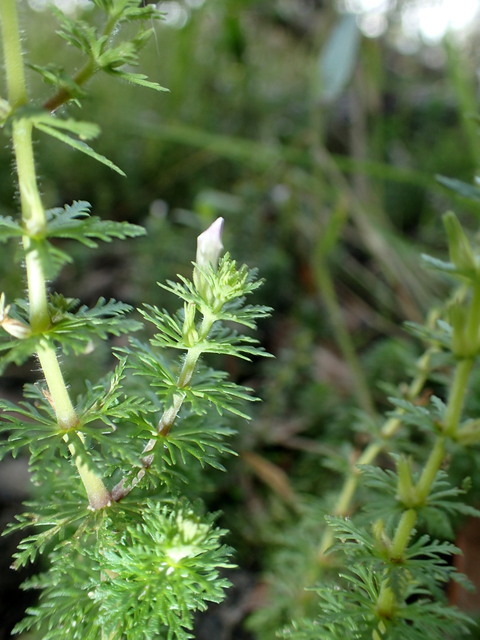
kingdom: Plantae
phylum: Tracheophyta
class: Magnoliopsida
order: Lamiales
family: Plantaginaceae
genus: Limnophila
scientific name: Limnophila sessiliflora
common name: Asian marshweed
